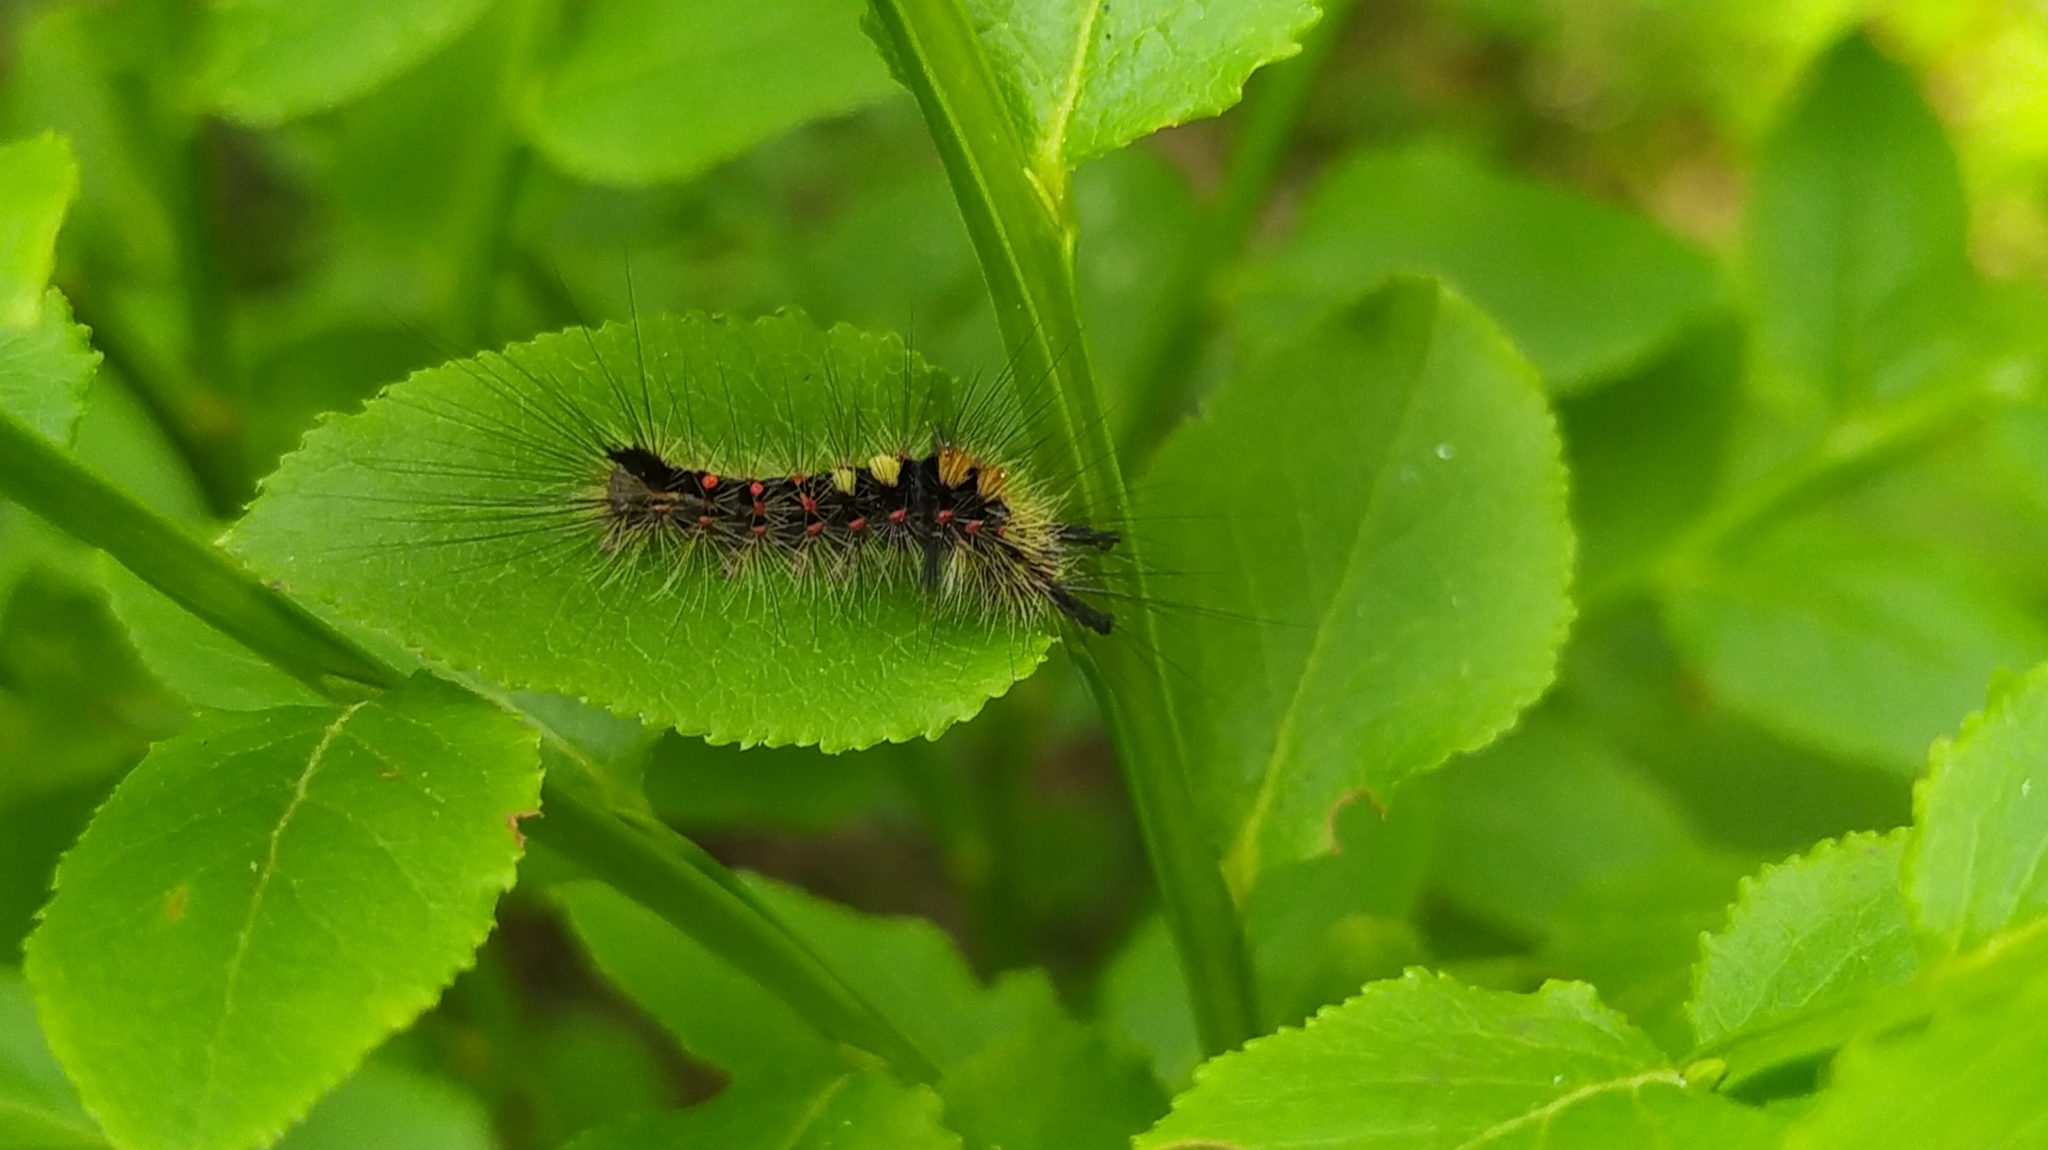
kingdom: Animalia
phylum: Arthropoda
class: Insecta
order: Lepidoptera
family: Erebidae
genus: Orgyia
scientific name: Orgyia antiqua
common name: Vapourer
